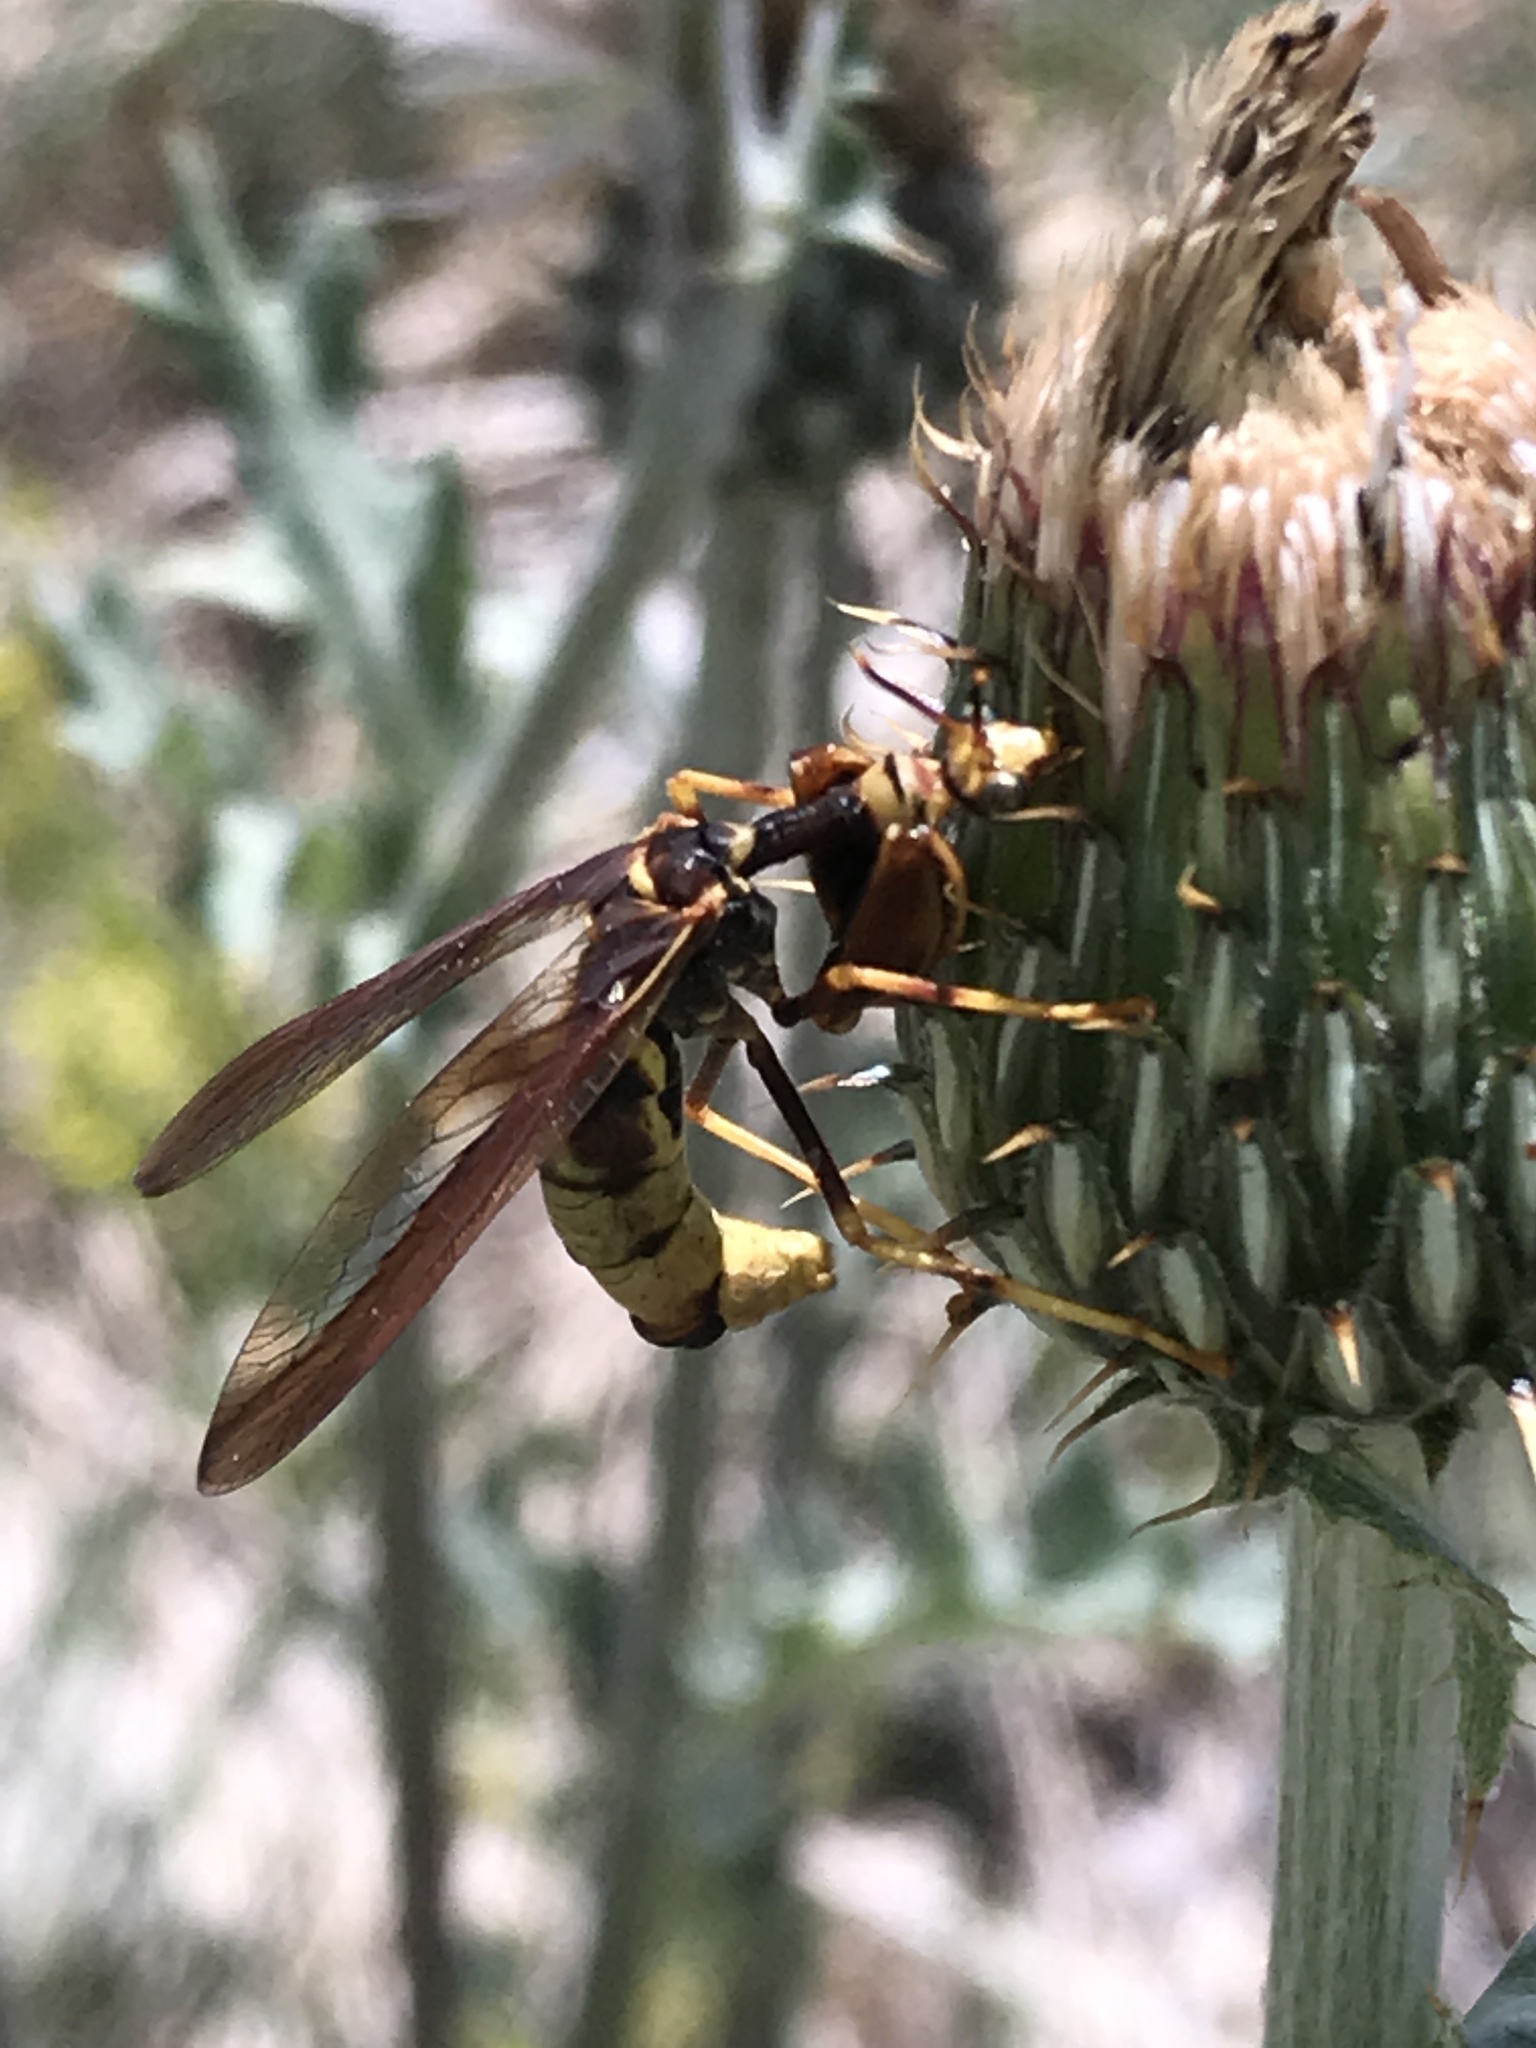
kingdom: Animalia
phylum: Arthropoda
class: Insecta
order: Neuroptera
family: Mantispidae
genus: Climaciella
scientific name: Climaciella brunnea
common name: Brown wasp mantidfly
